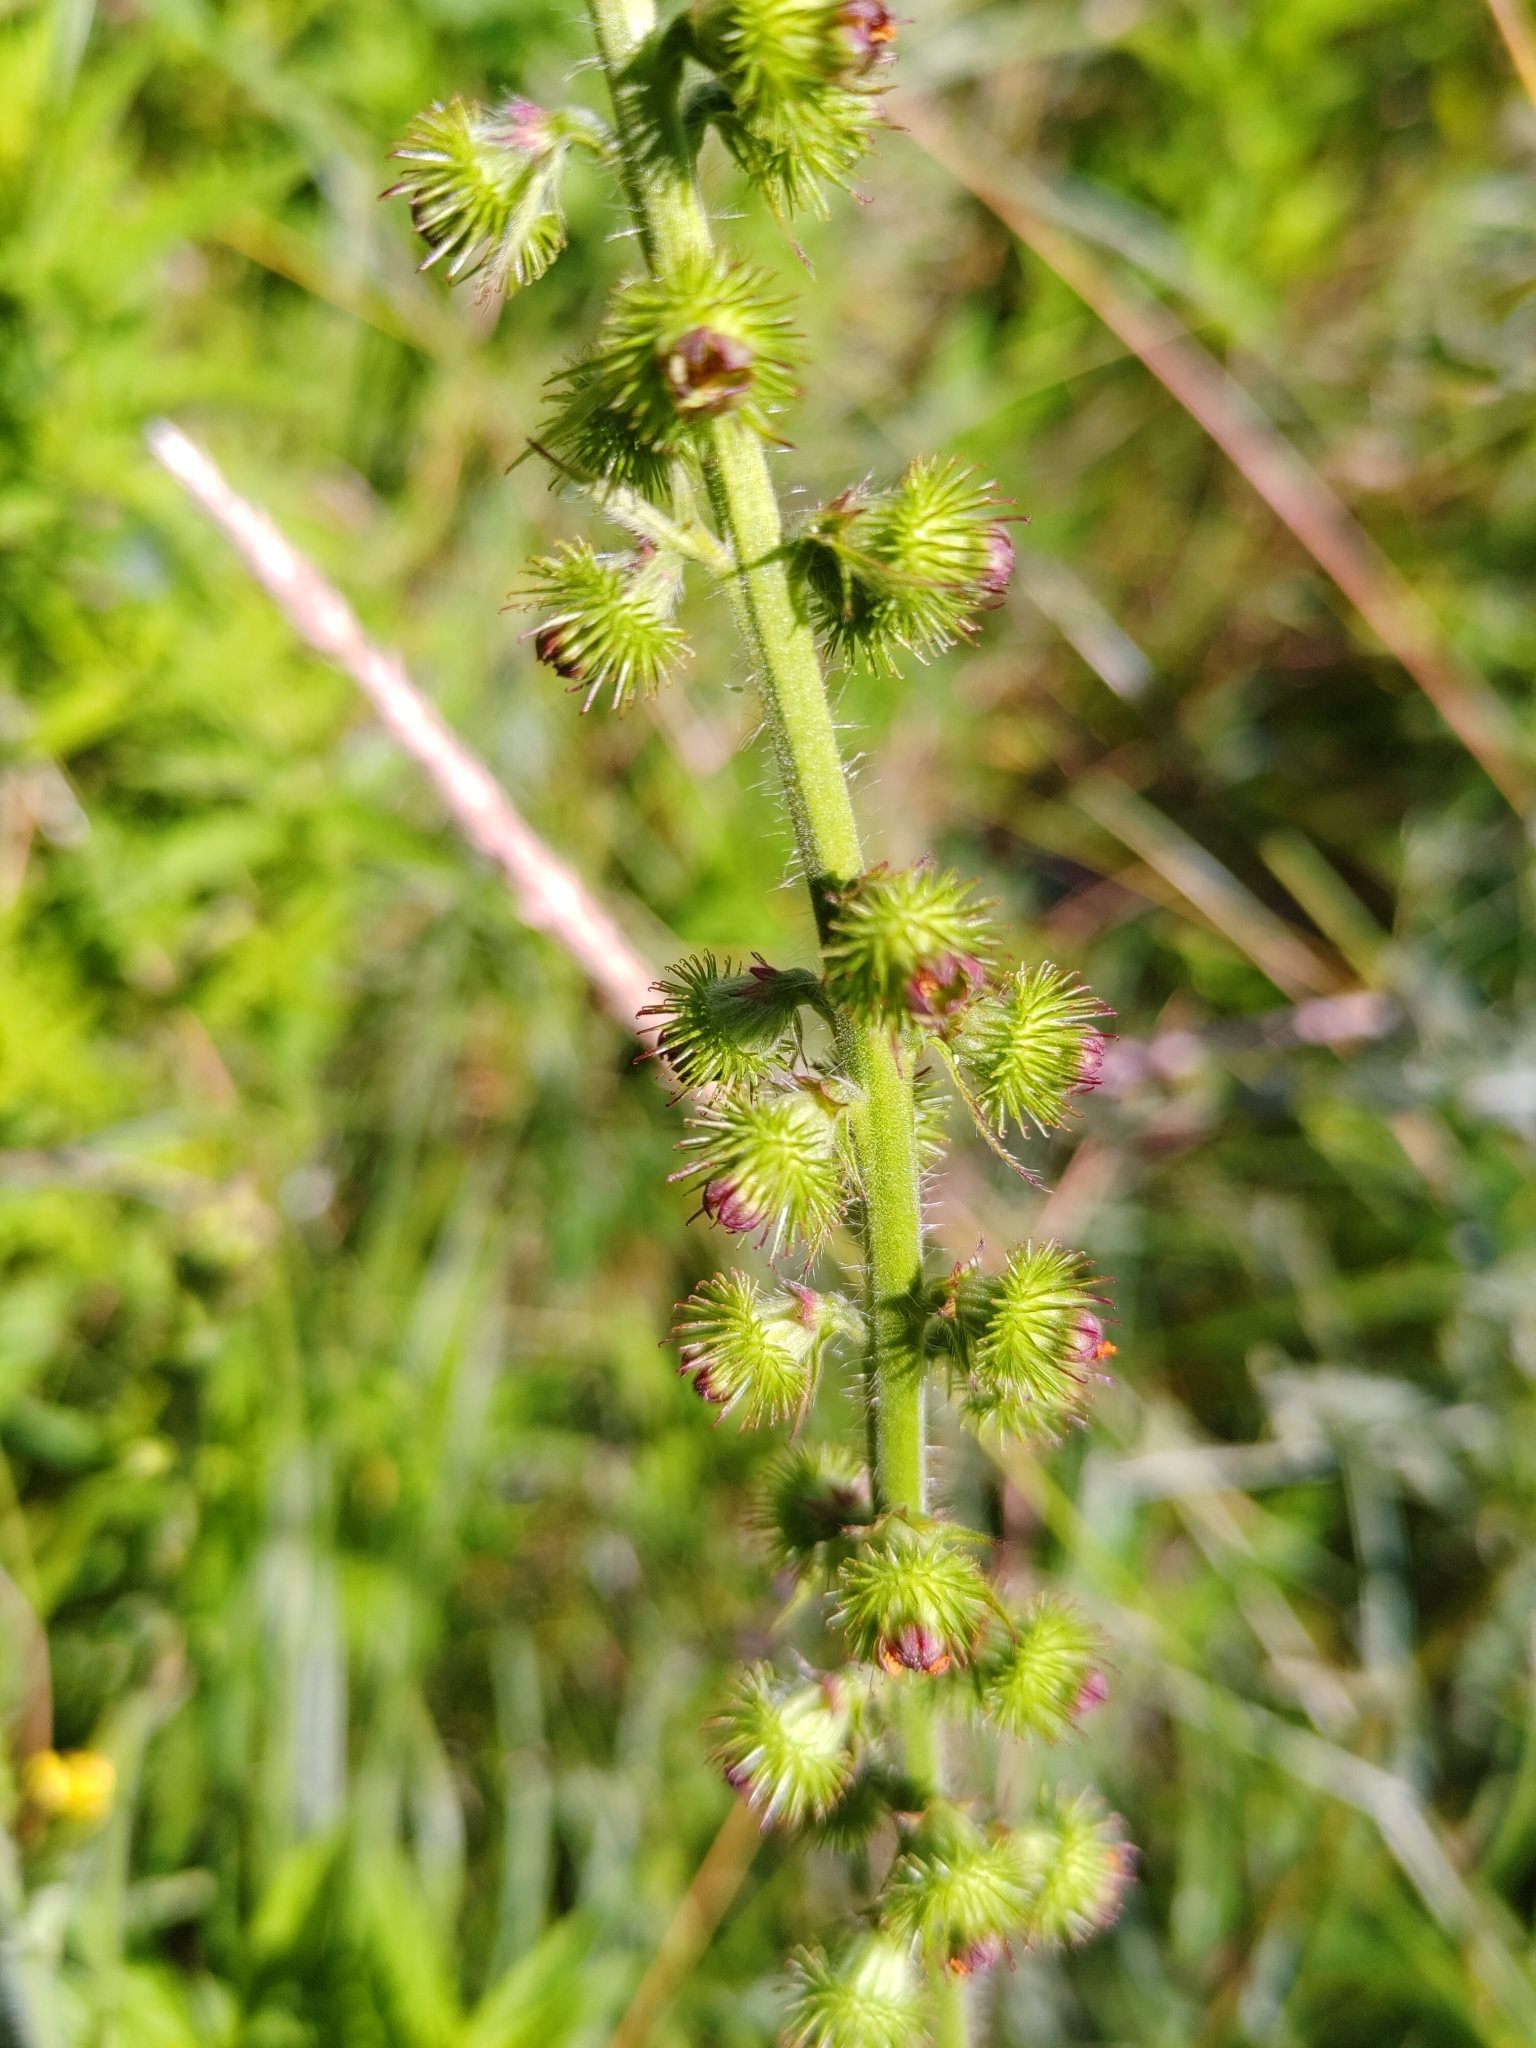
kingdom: Plantae
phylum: Tracheophyta
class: Magnoliopsida
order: Rosales
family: Rosaceae
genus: Agrimonia
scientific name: Agrimonia procera
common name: Fragrant agrimony
